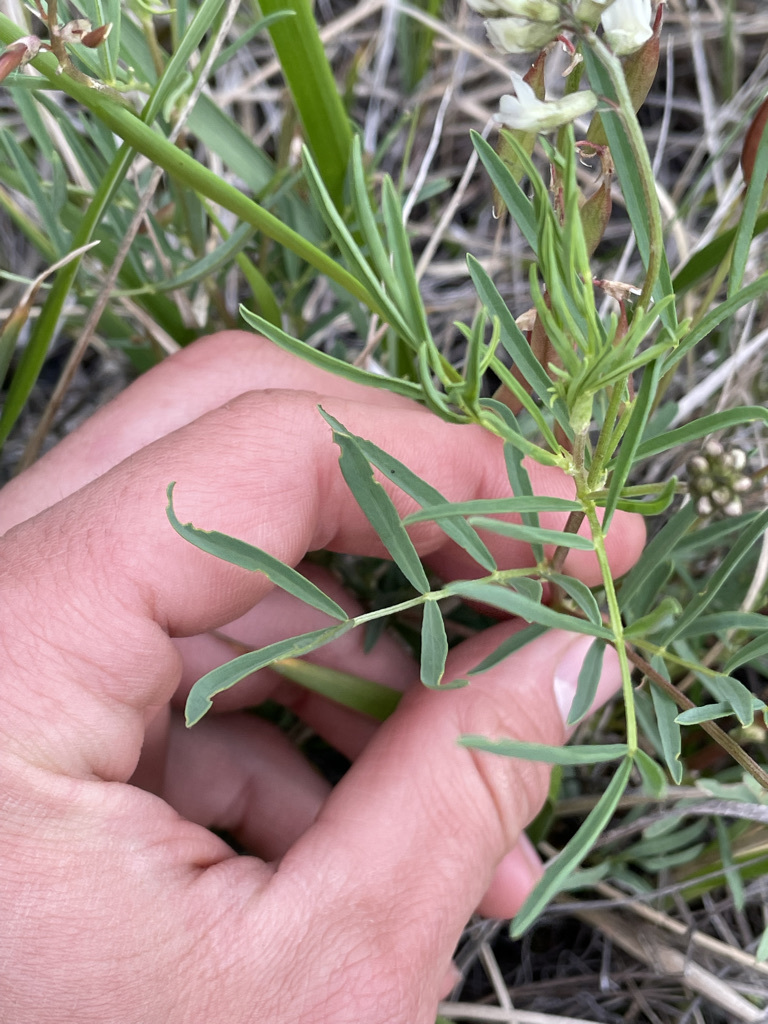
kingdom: Plantae
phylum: Tracheophyta
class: Magnoliopsida
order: Fabales
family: Fabaceae
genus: Astragalus
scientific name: Astragalus australis
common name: Indian milk-vetch
